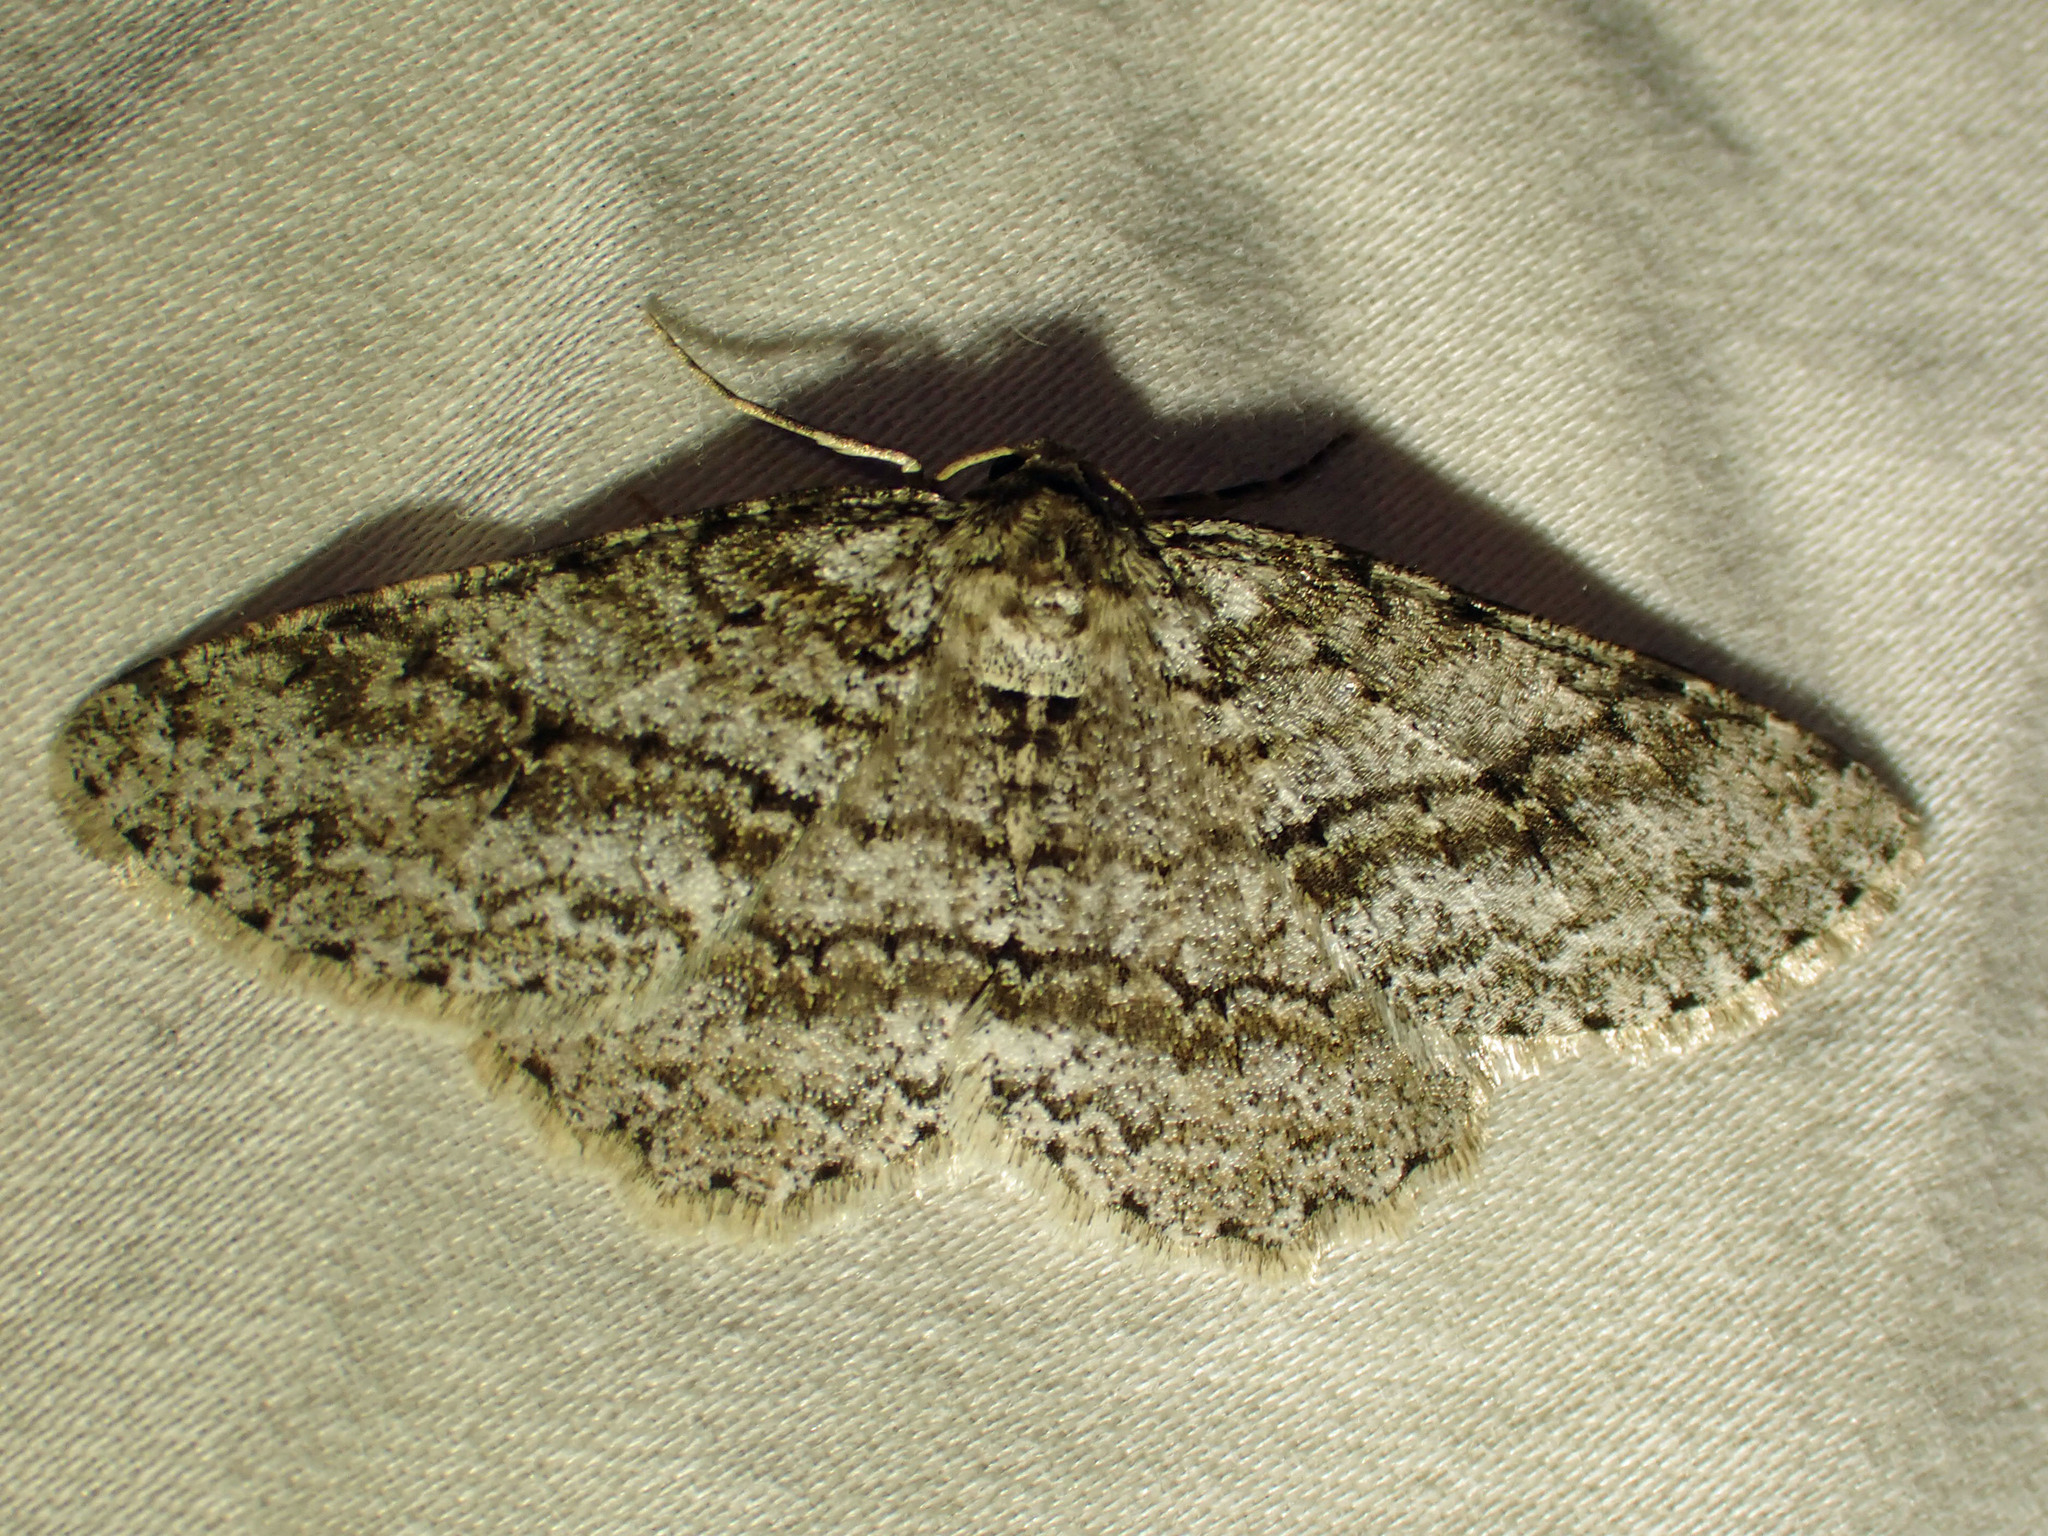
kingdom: Animalia
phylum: Arthropoda
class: Insecta
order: Lepidoptera
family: Geometridae
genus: Ectropis
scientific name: Ectropis crepuscularia
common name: Engrailed
